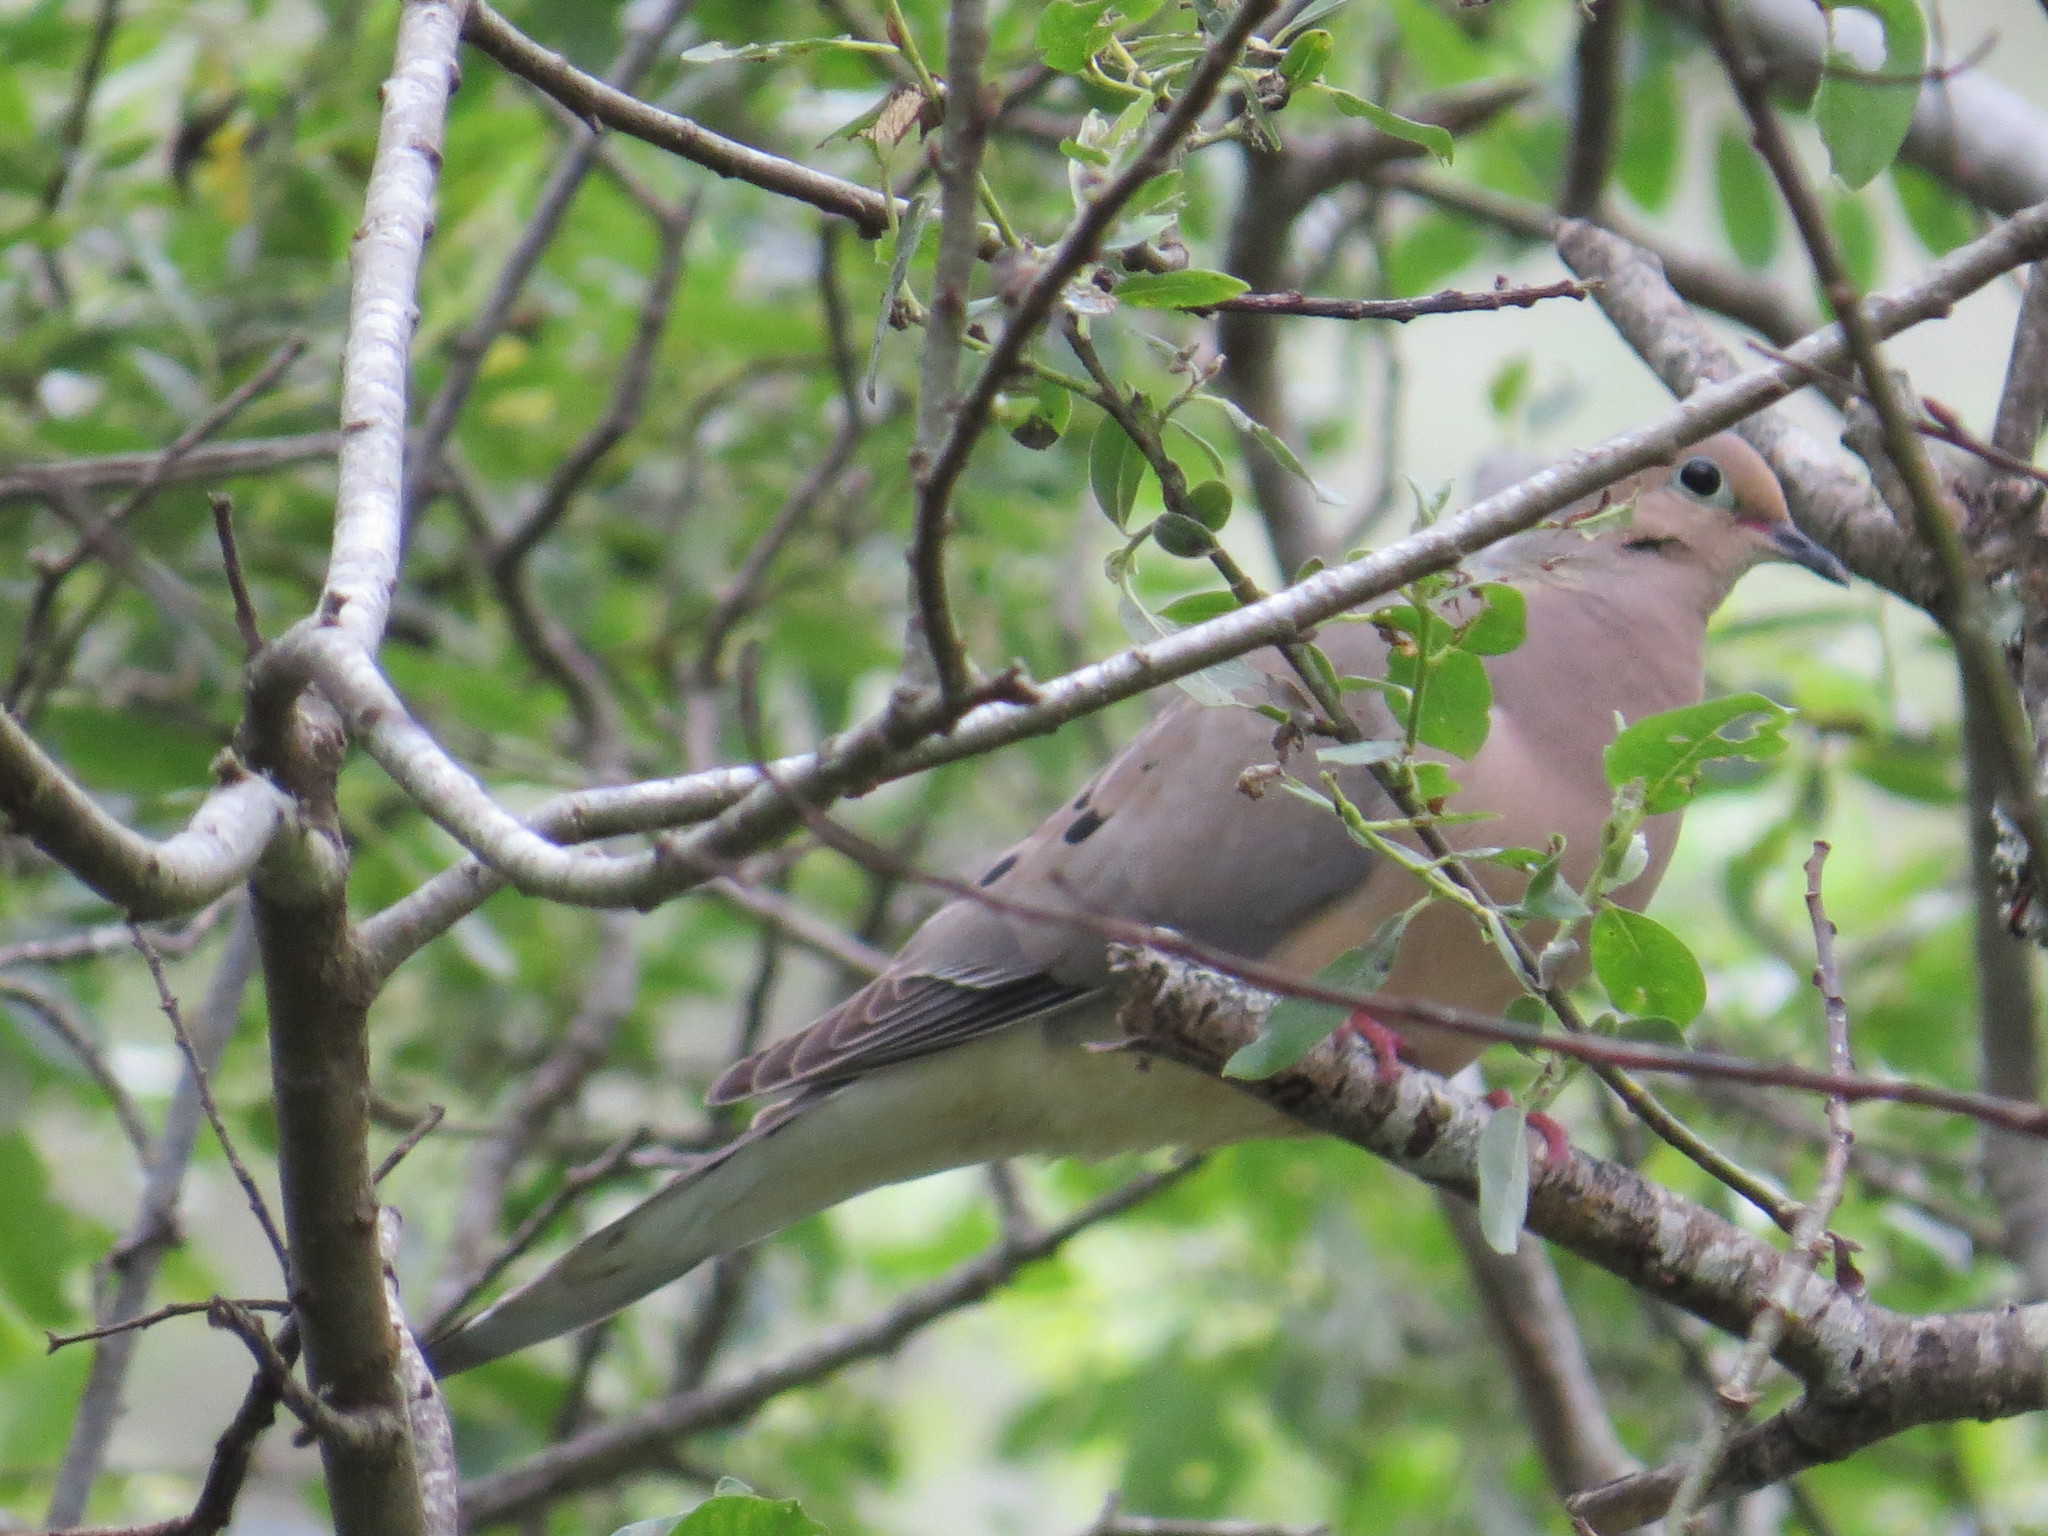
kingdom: Animalia
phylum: Chordata
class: Aves
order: Columbiformes
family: Columbidae
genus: Zenaida
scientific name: Zenaida macroura
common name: Mourning dove
